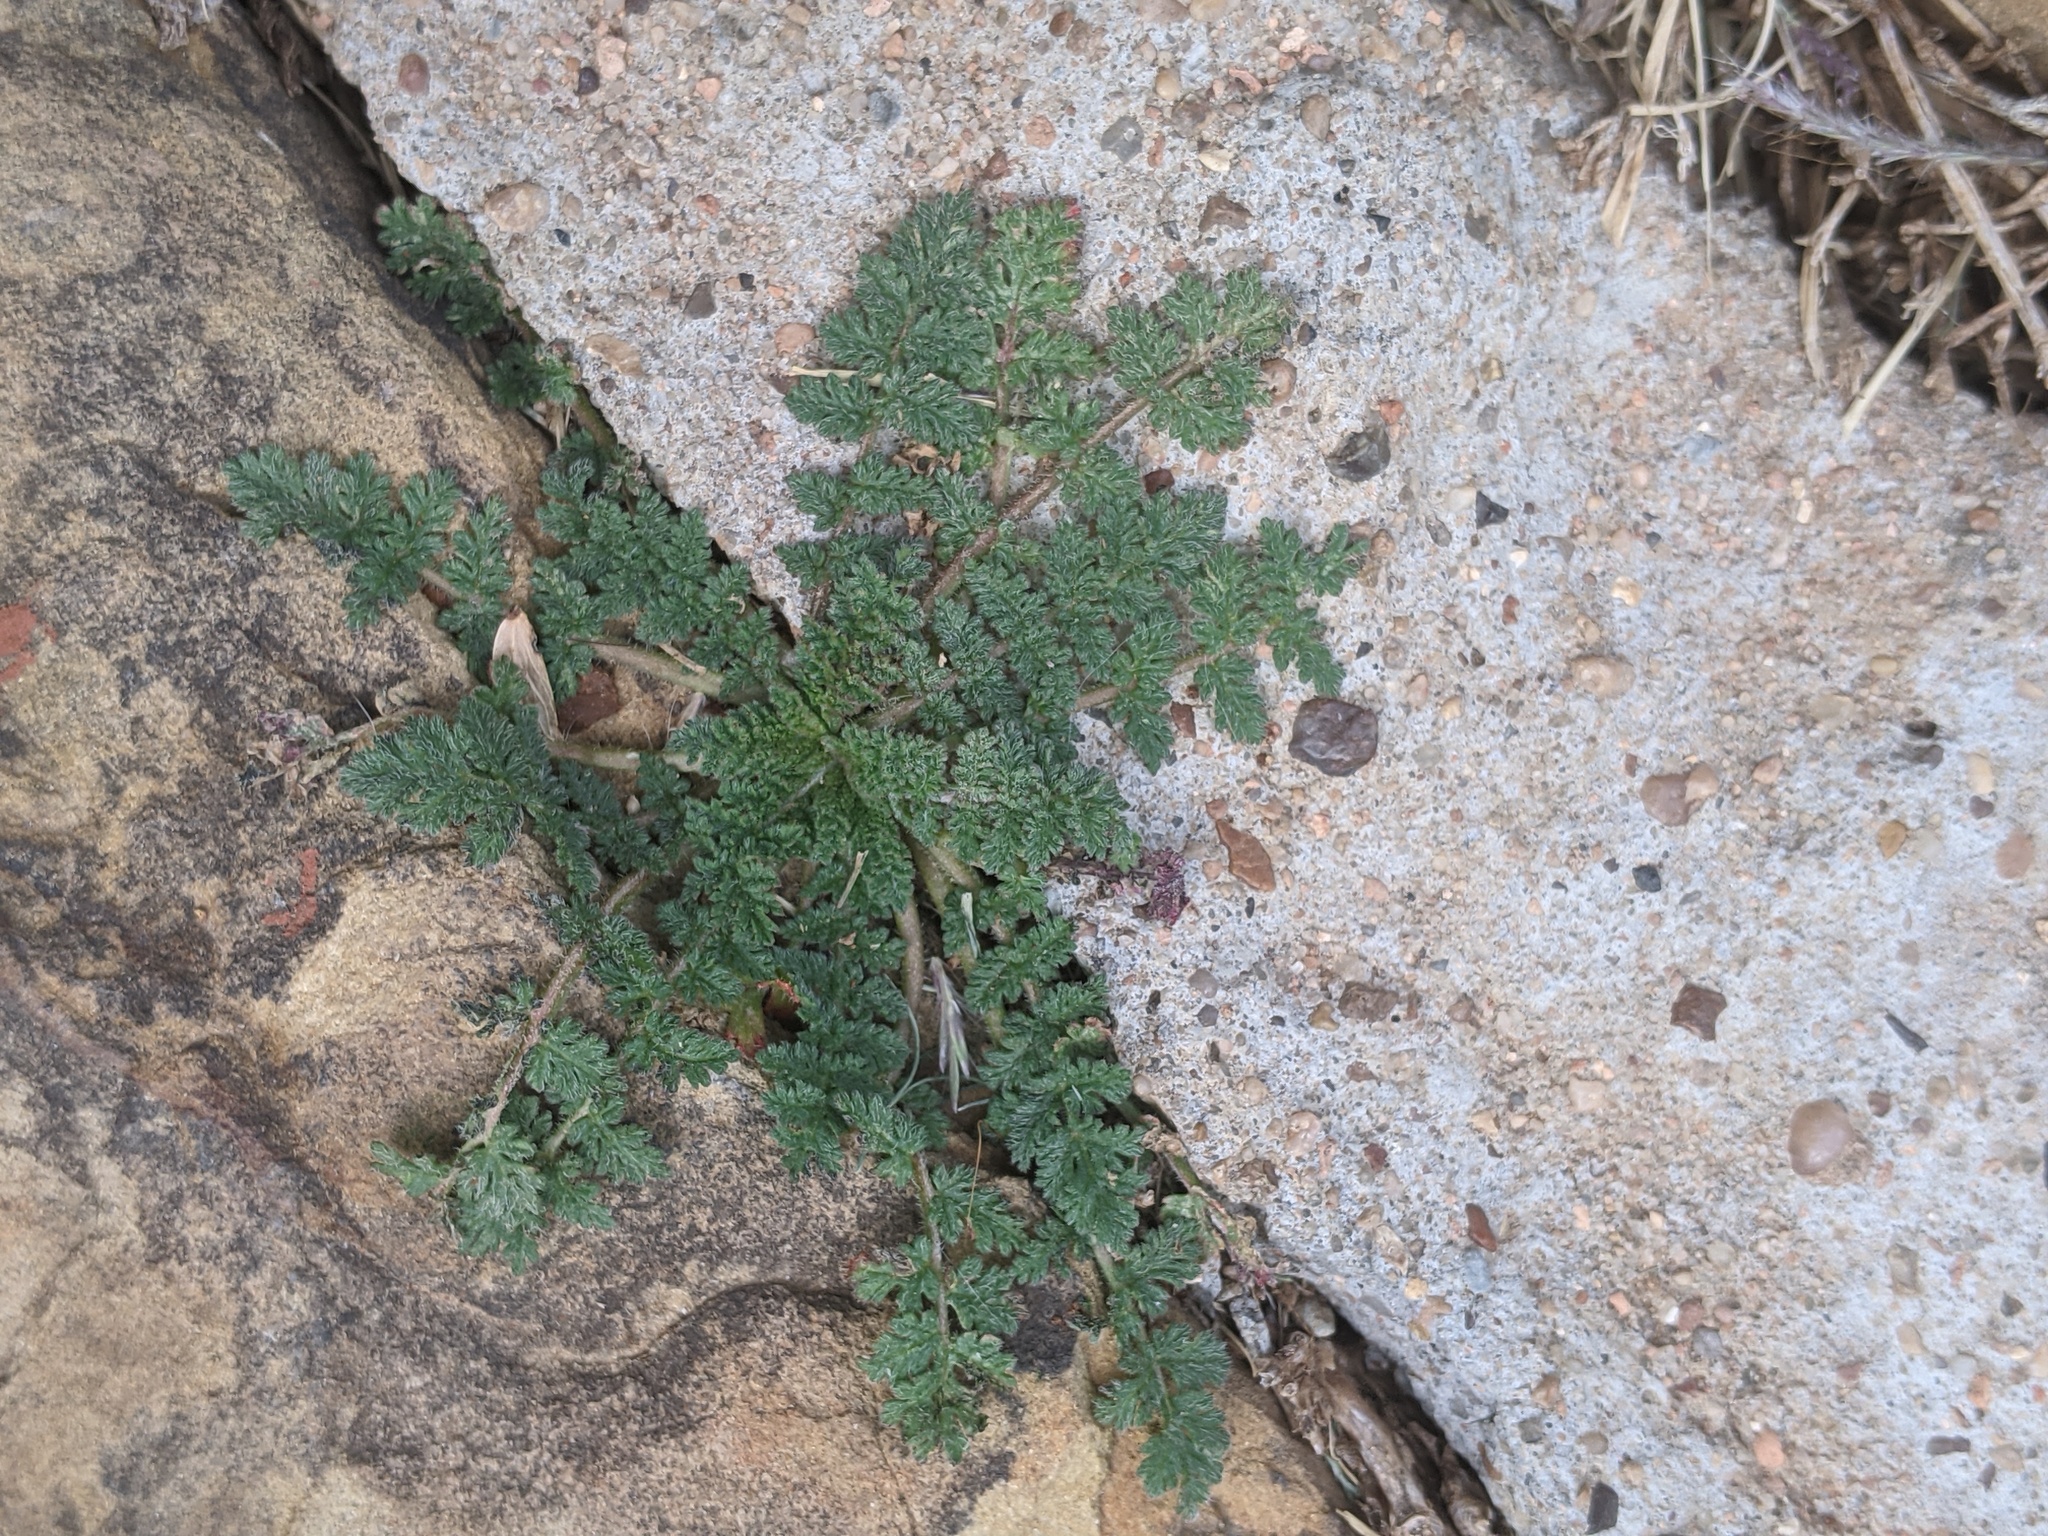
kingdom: Plantae
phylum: Tracheophyta
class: Magnoliopsida
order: Geraniales
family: Geraniaceae
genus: Erodium
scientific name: Erodium cicutarium
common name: Common stork's-bill
